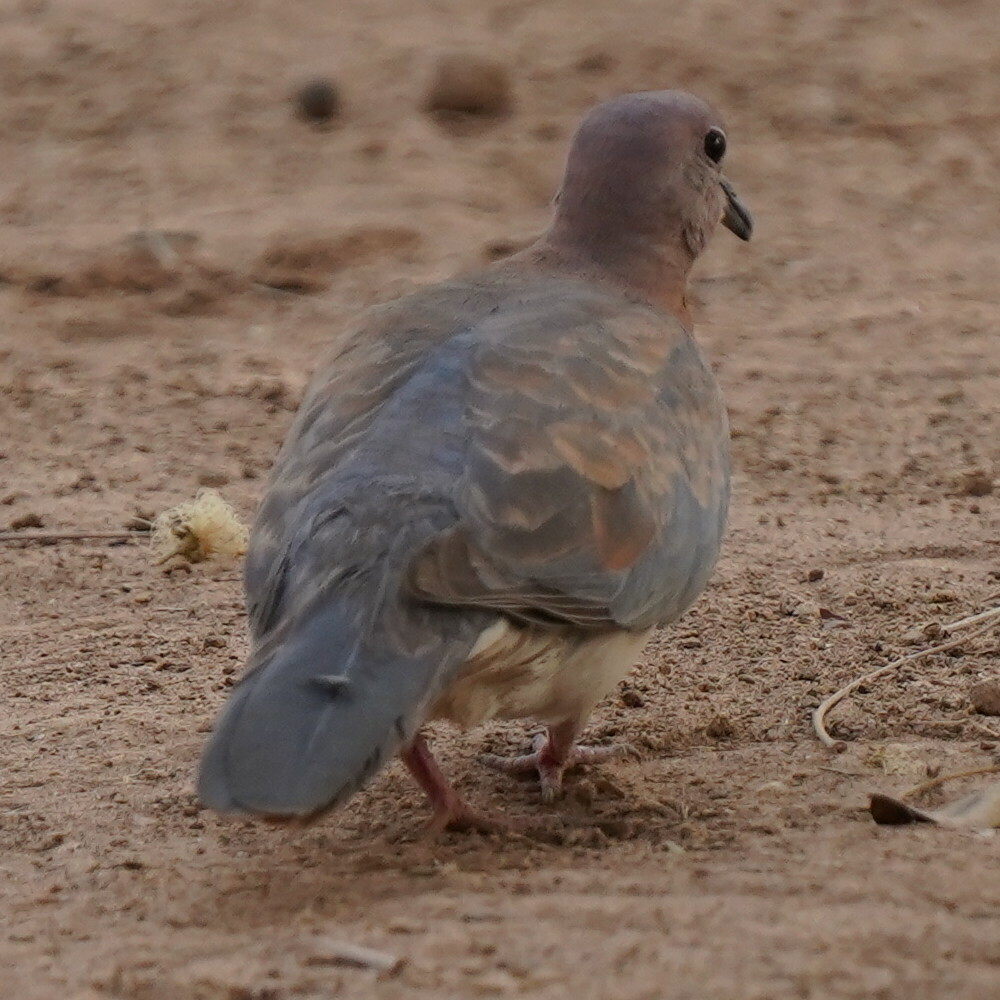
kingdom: Animalia
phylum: Chordata
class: Aves
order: Columbiformes
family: Columbidae
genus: Spilopelia
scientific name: Spilopelia senegalensis
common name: Laughing dove
